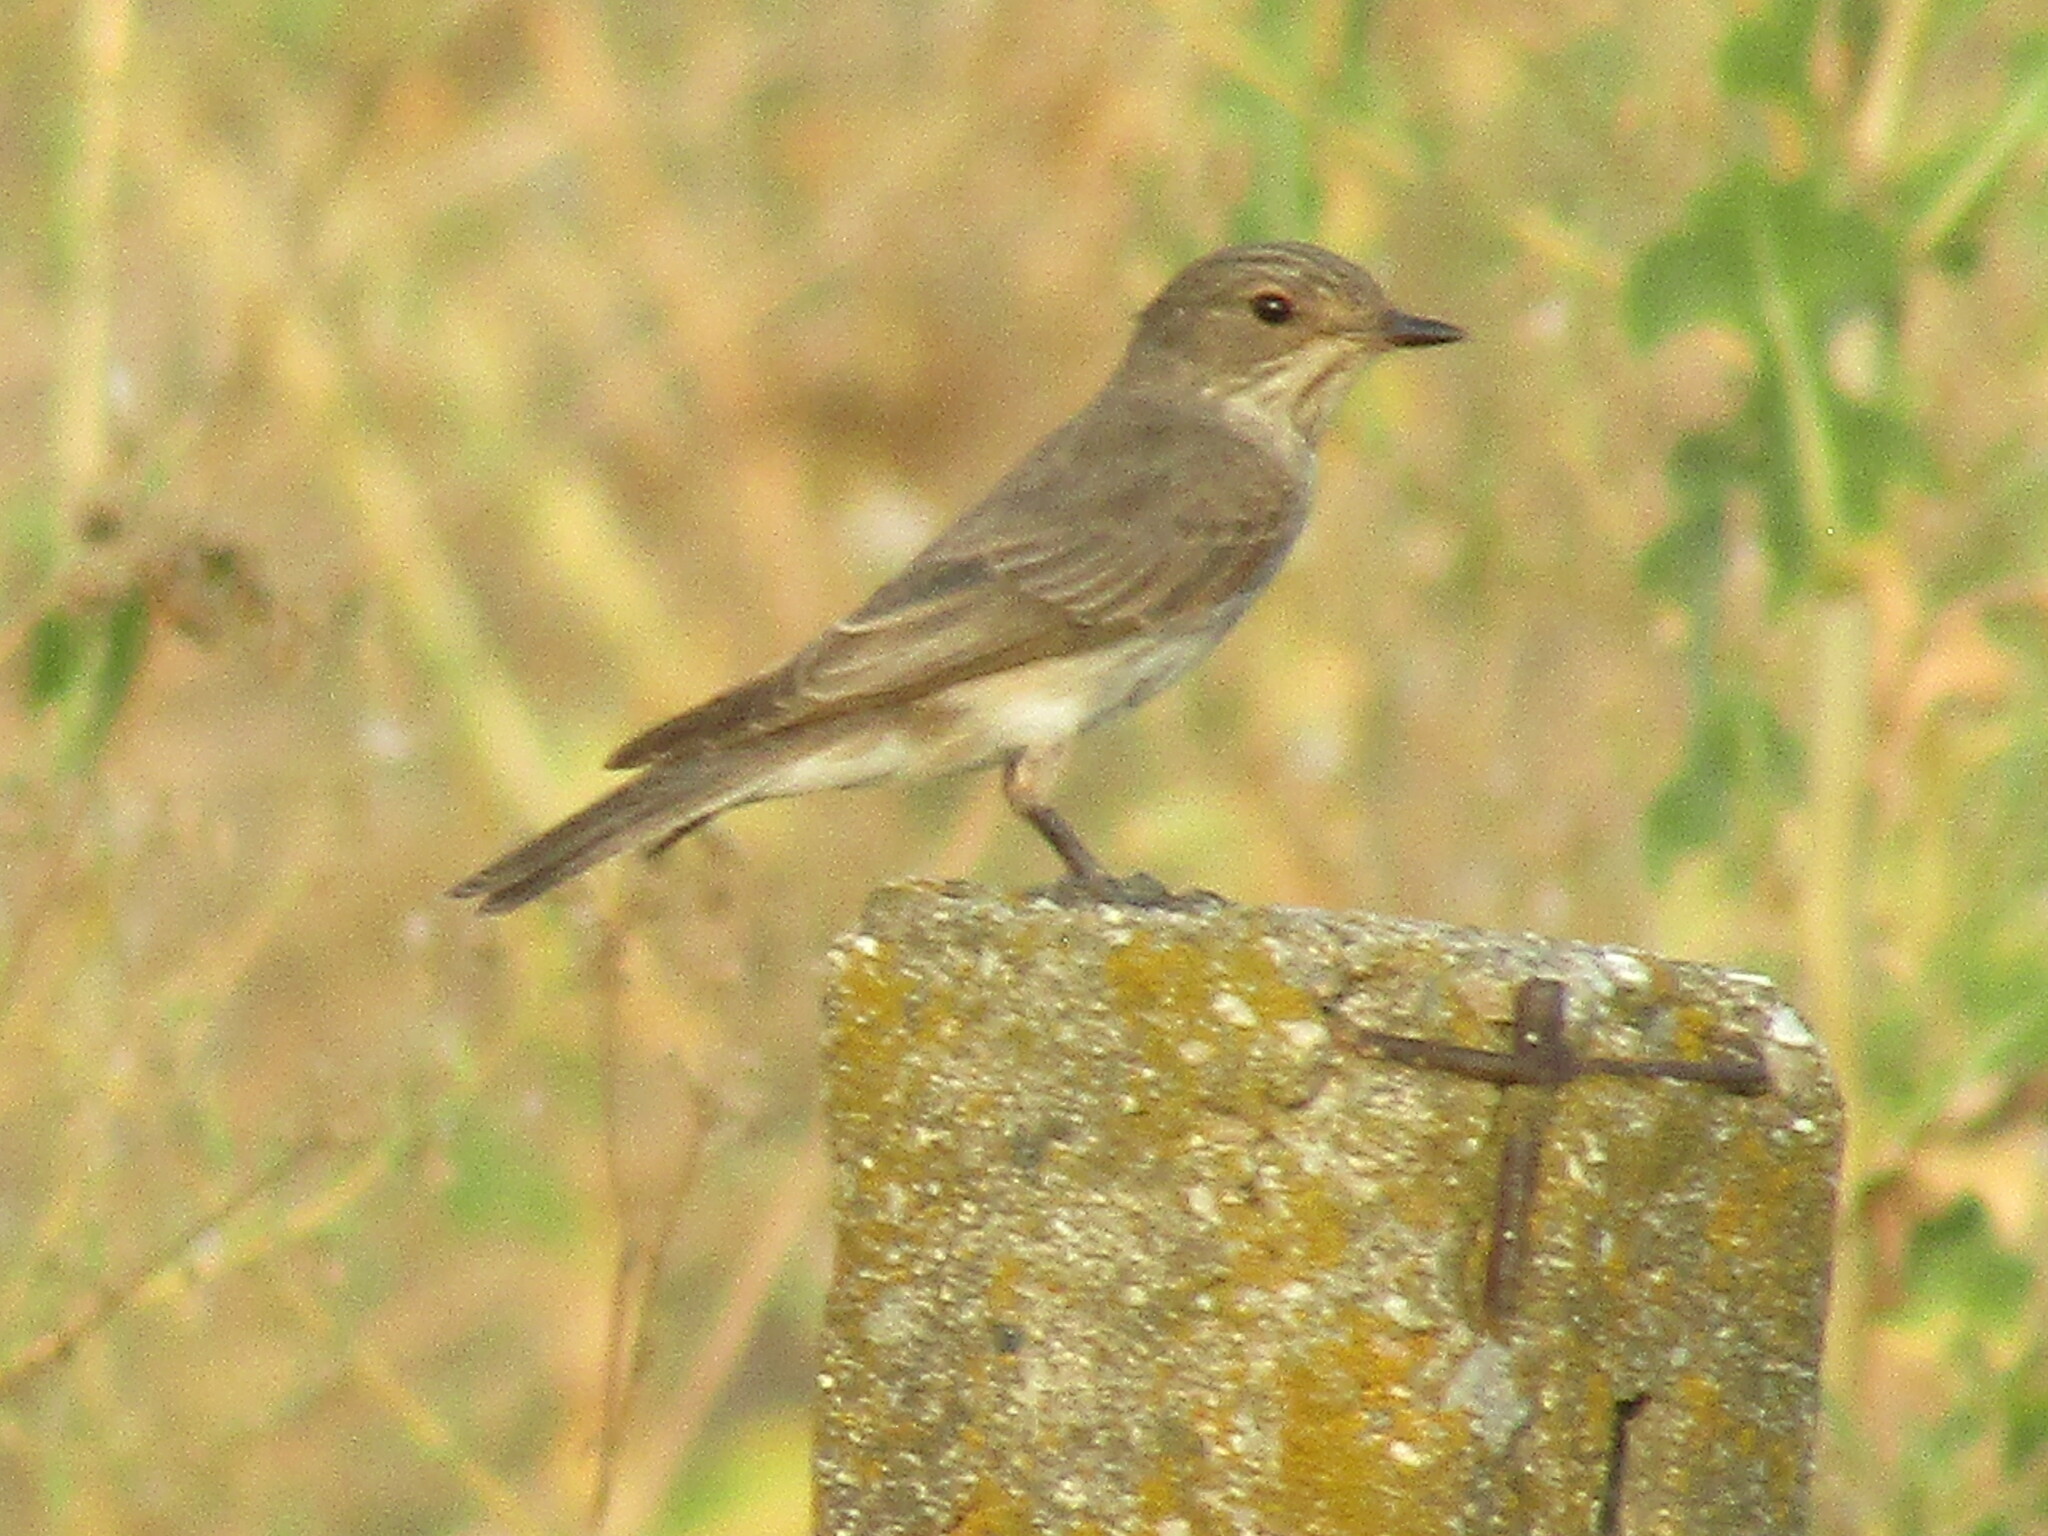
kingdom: Animalia
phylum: Chordata
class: Aves
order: Passeriformes
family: Muscicapidae
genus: Muscicapa
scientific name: Muscicapa striata
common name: Spotted flycatcher
